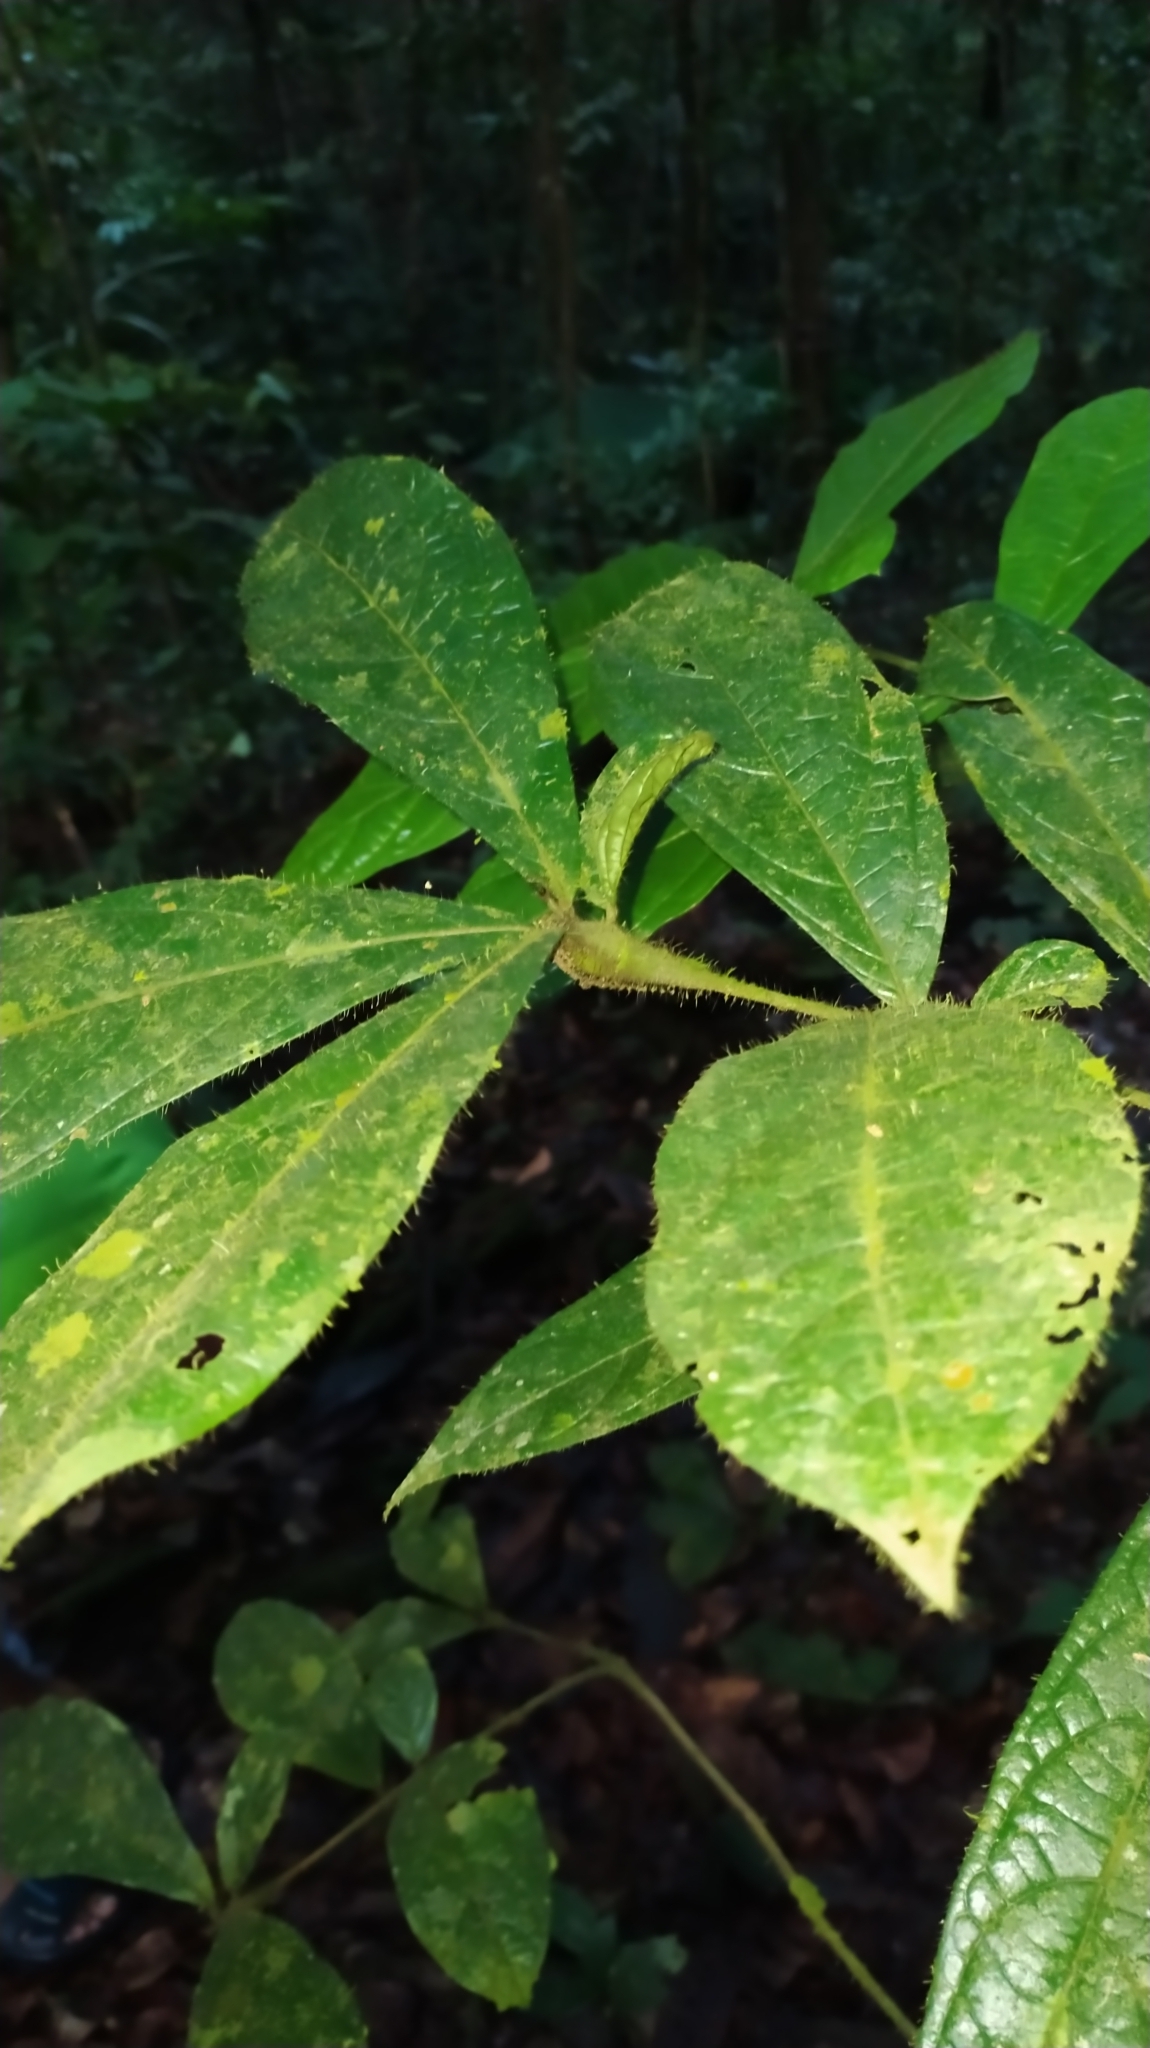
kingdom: Plantae
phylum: Tracheophyta
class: Magnoliopsida
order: Boraginales
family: Cordiaceae
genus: Cordia
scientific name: Cordia nodosa
